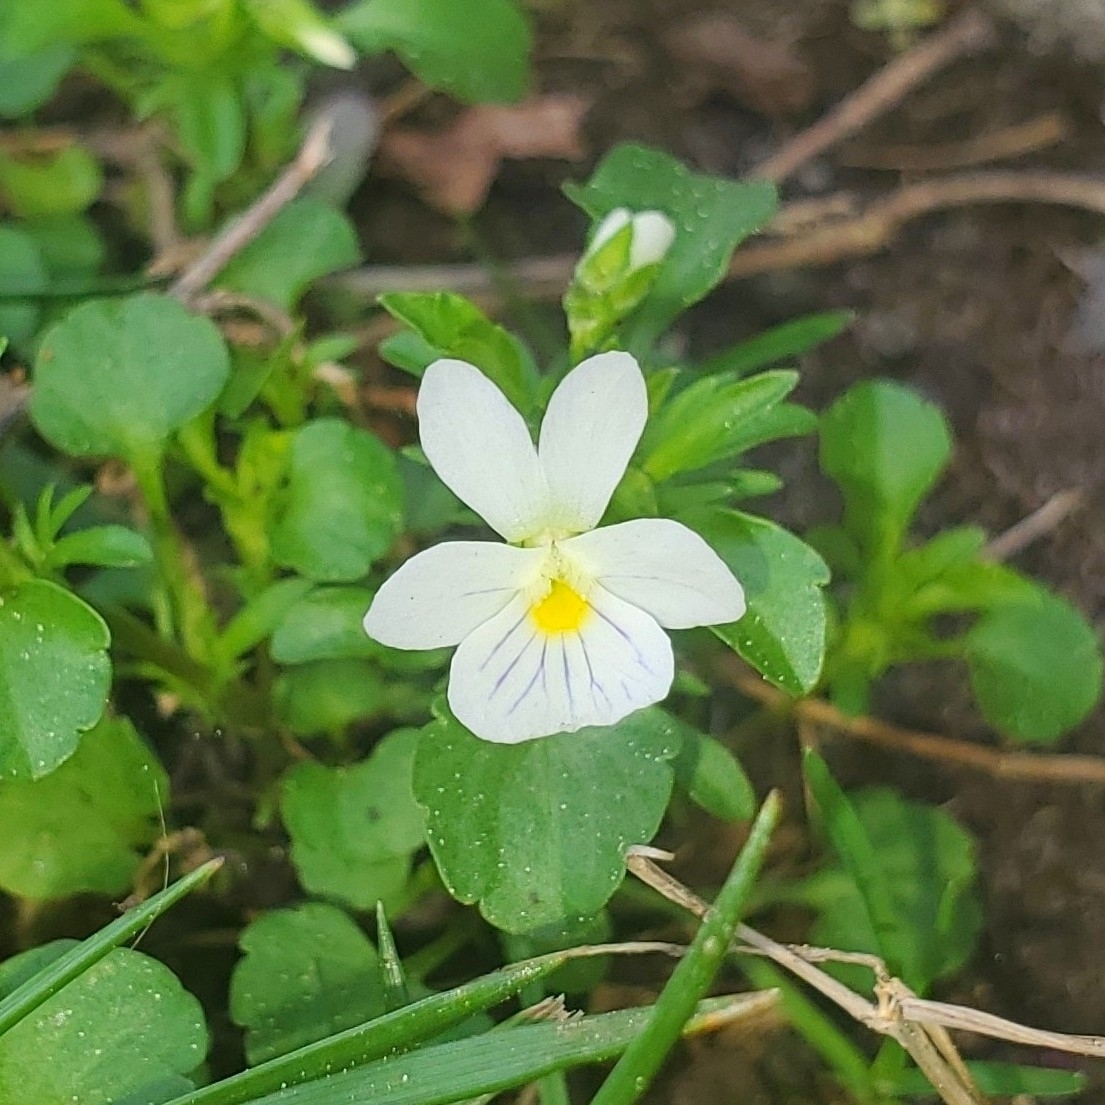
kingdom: Plantae
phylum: Tracheophyta
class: Magnoliopsida
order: Malpighiales
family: Violaceae
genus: Viola
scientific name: Viola rafinesquei
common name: American field pansy
